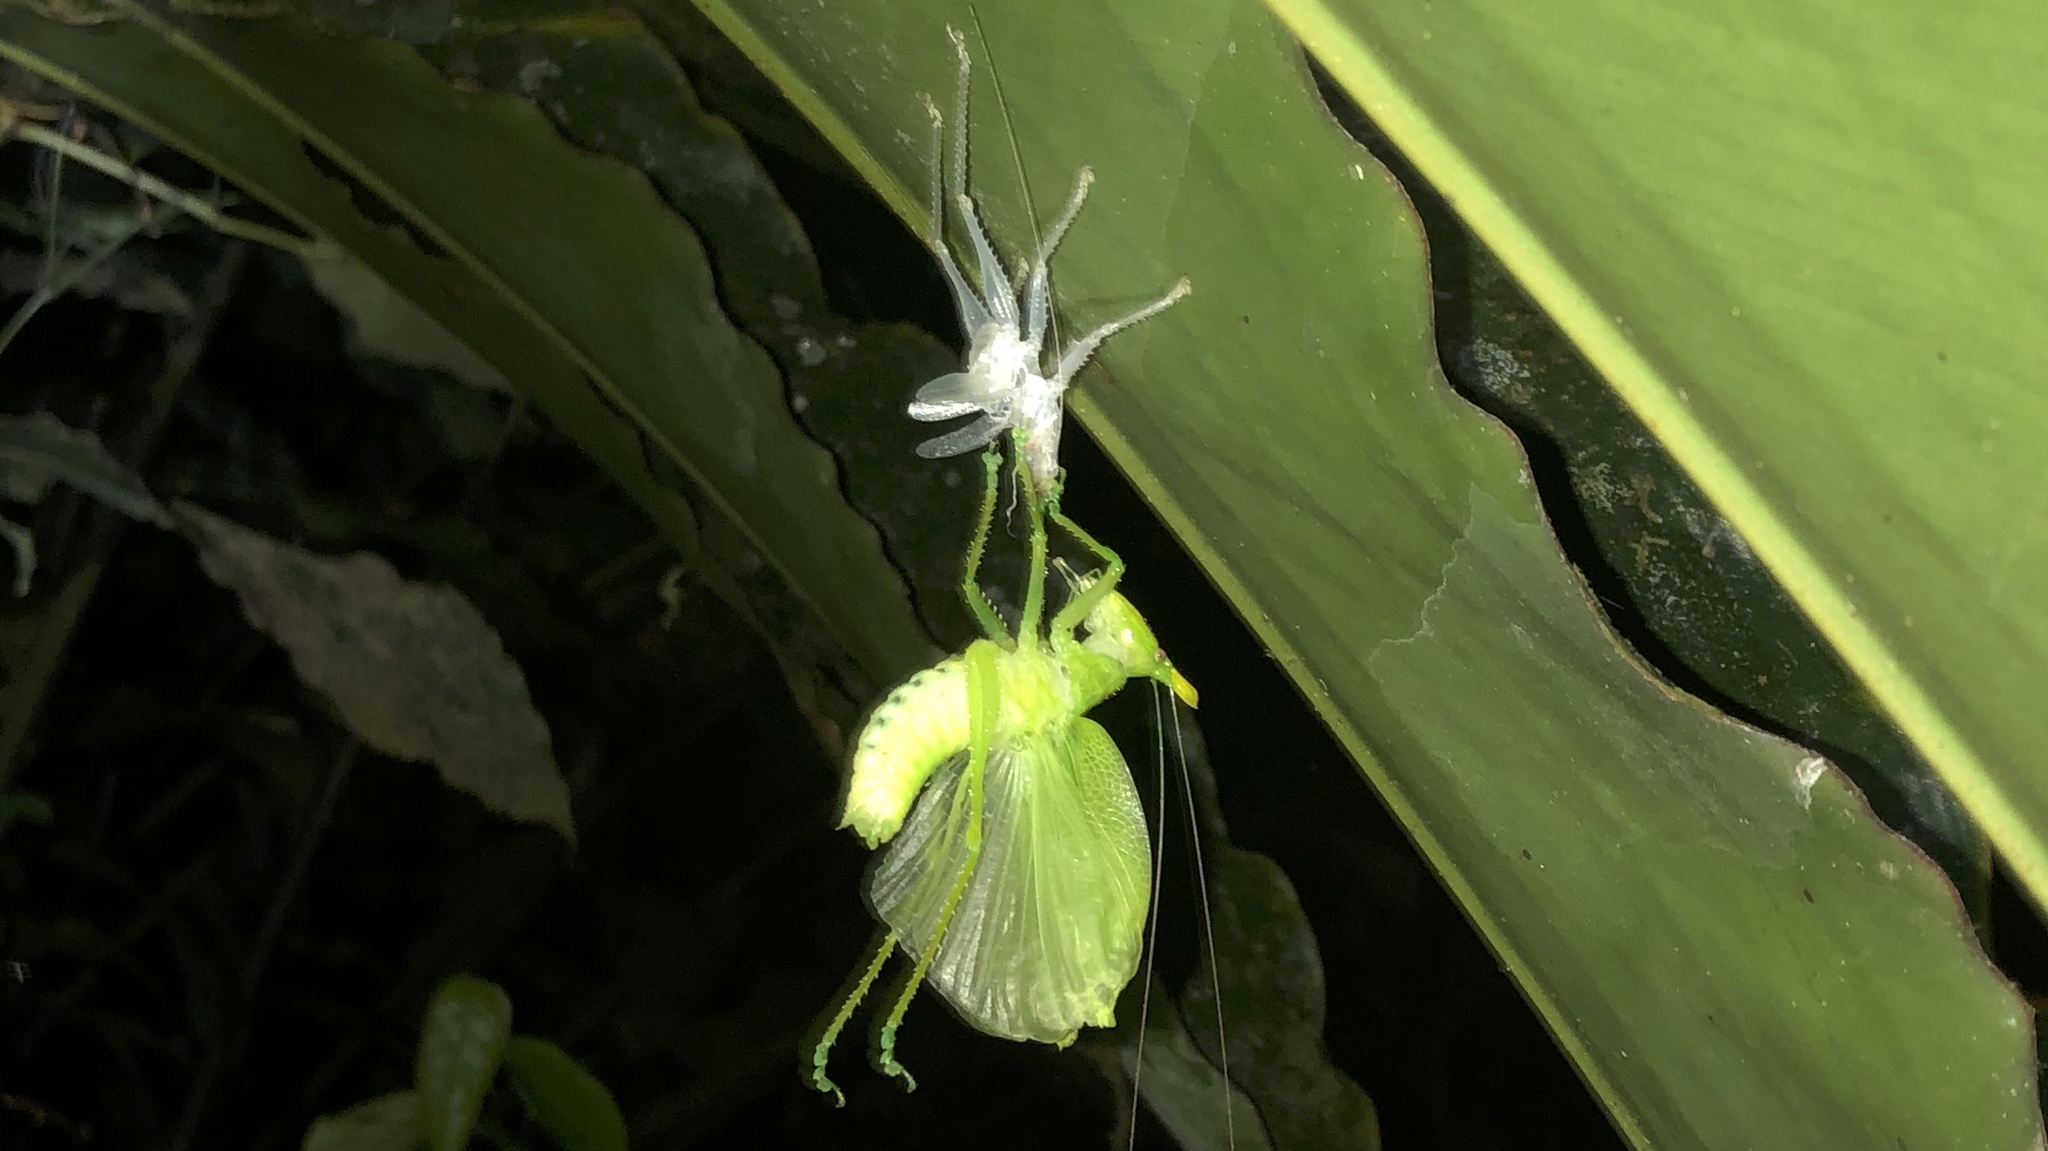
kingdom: Animalia
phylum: Arthropoda
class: Insecta
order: Orthoptera
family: Tettigoniidae
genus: Copiphora
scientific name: Copiphora cultricornis
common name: Yellow-faced spear bearer
